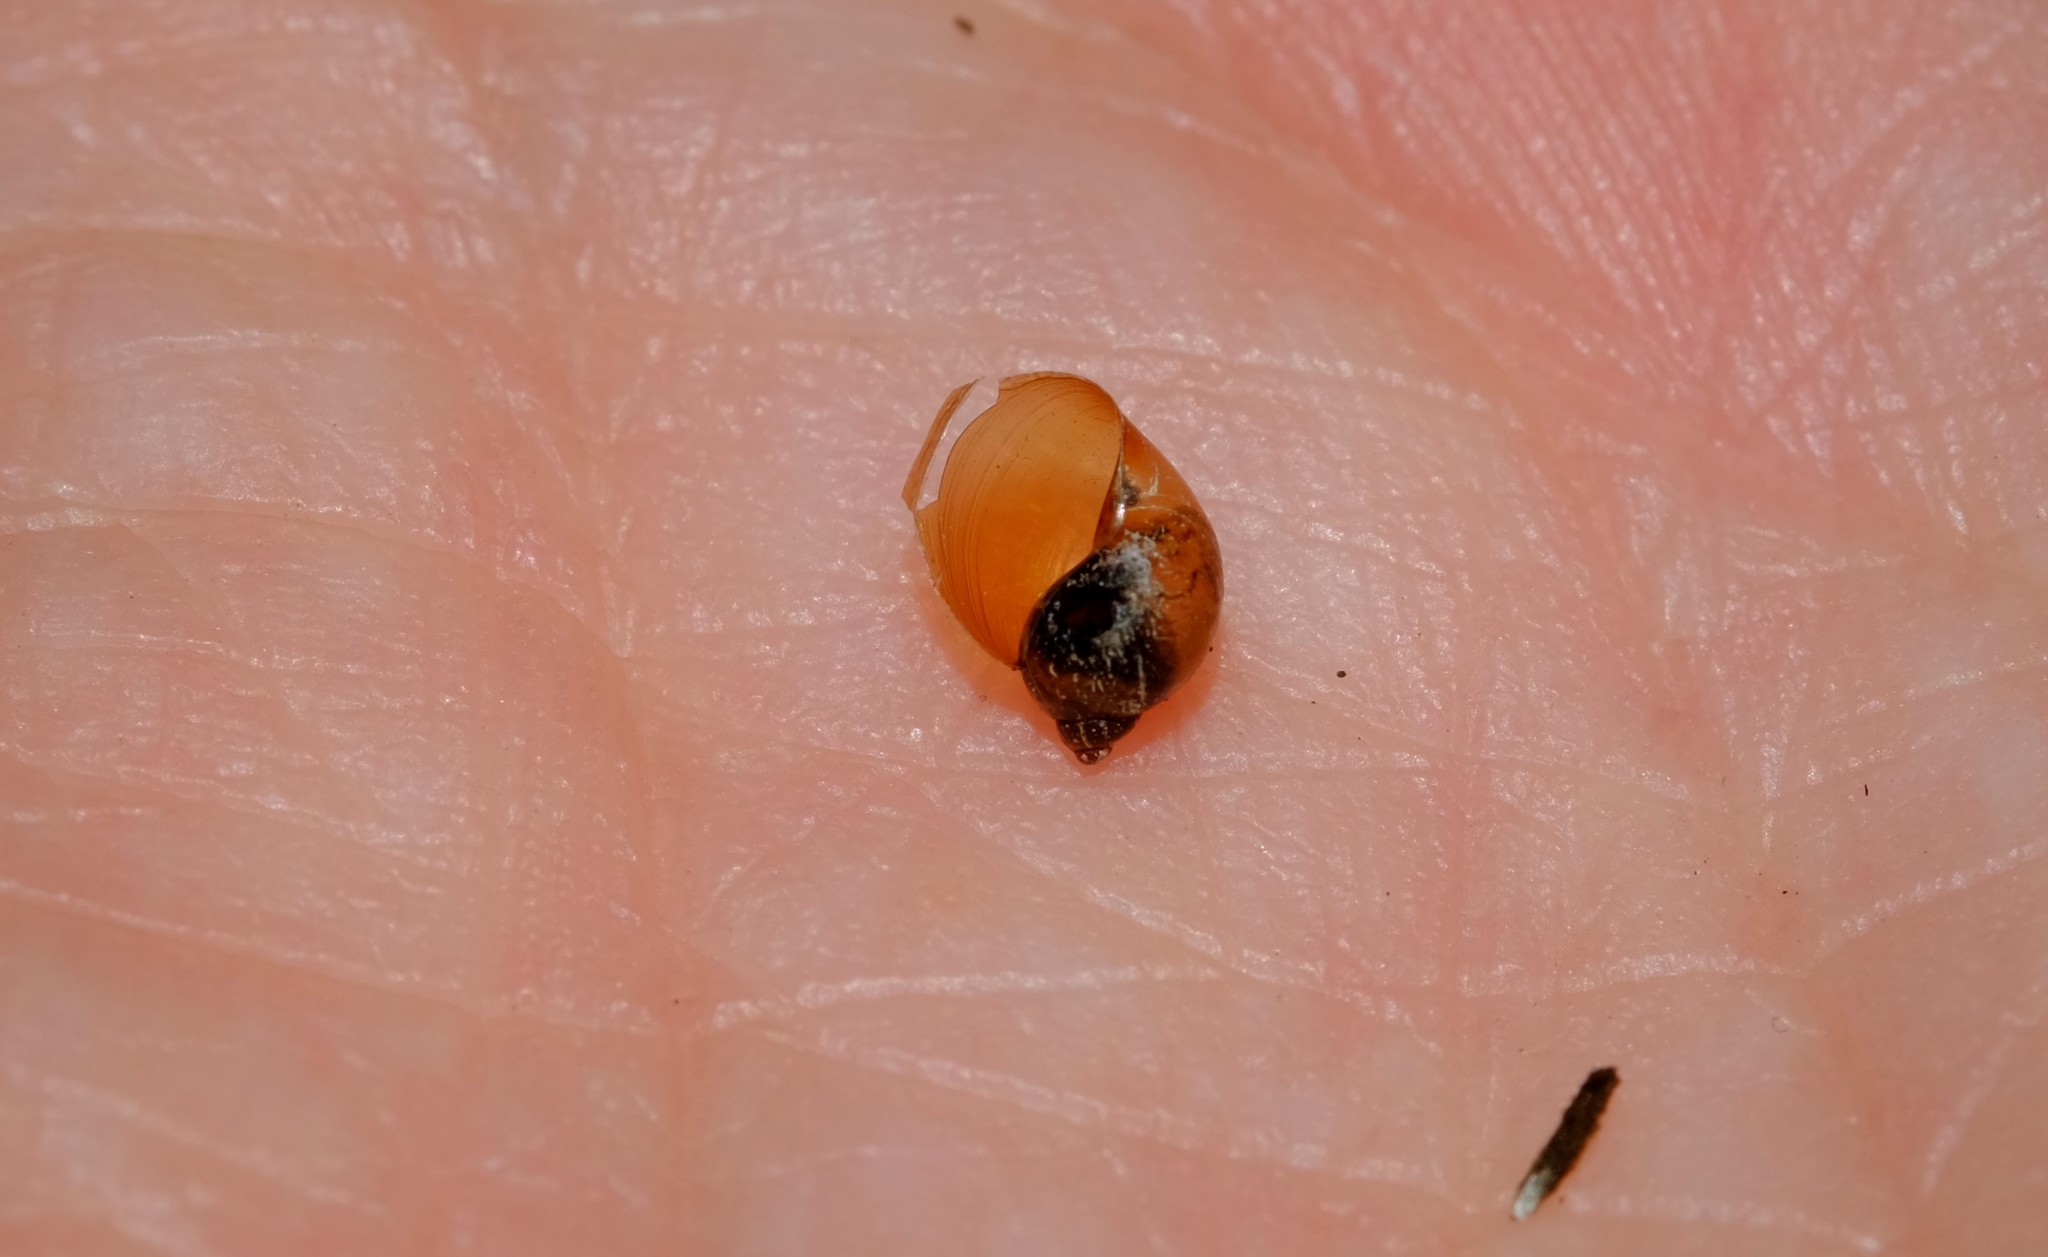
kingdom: Animalia
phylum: Mollusca
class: Gastropoda
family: Lymnaeidae
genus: Bullastra
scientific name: Bullastra lessoni
